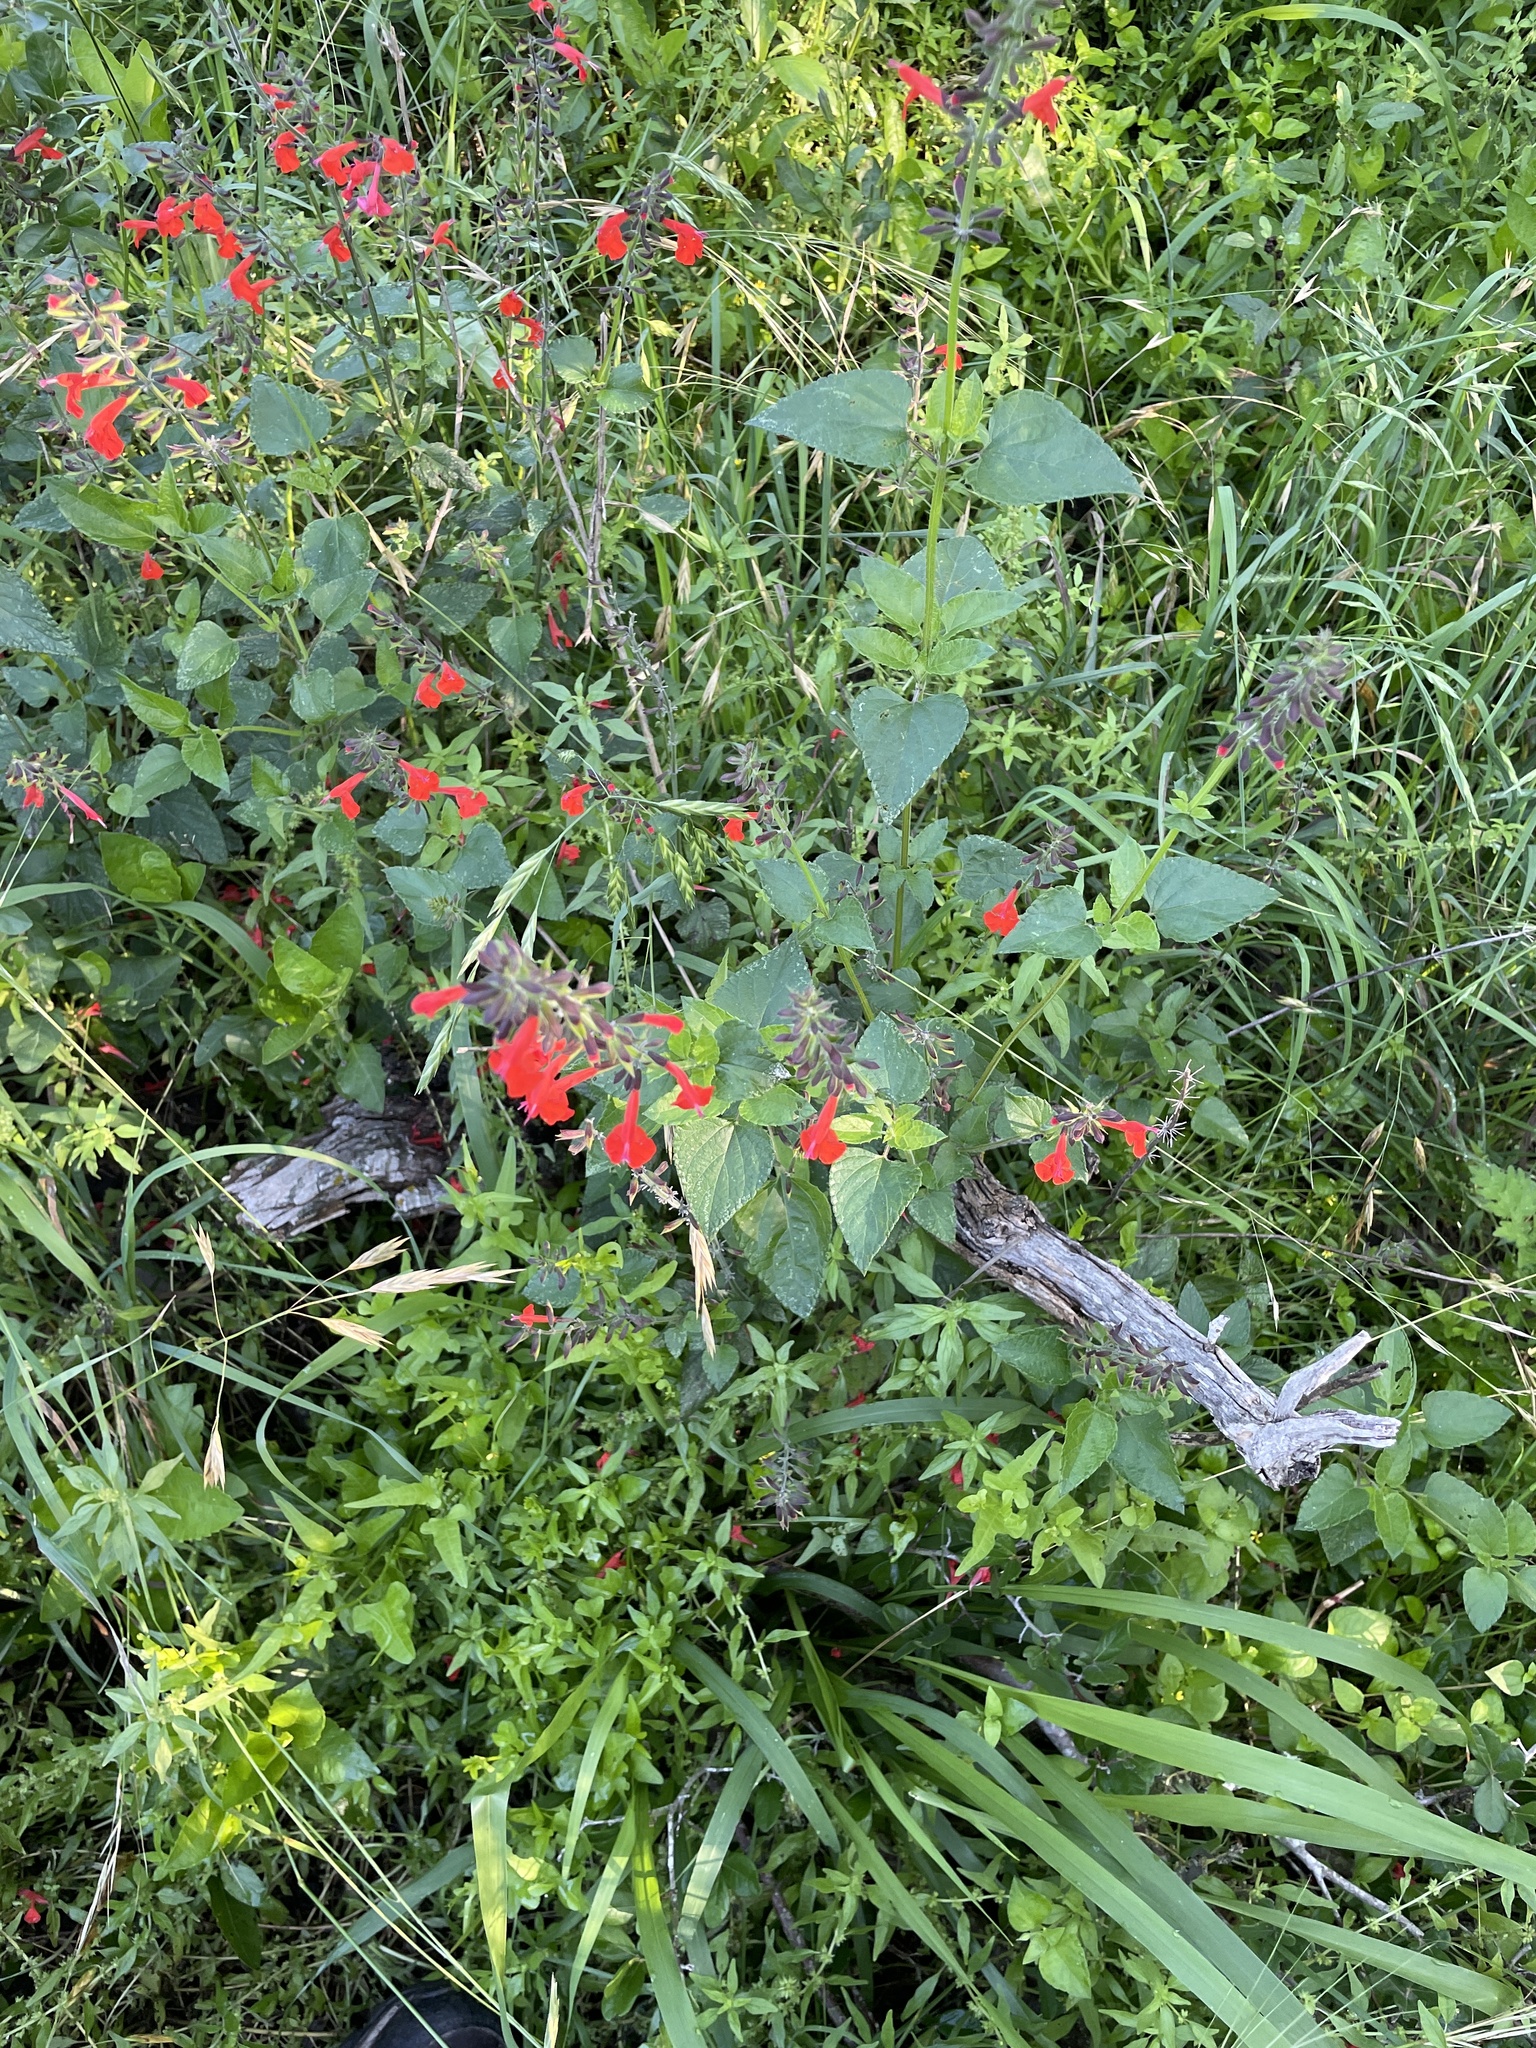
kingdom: Plantae
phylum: Tracheophyta
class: Magnoliopsida
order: Lamiales
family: Lamiaceae
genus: Salvia
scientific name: Salvia coccinea
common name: Blood sage
